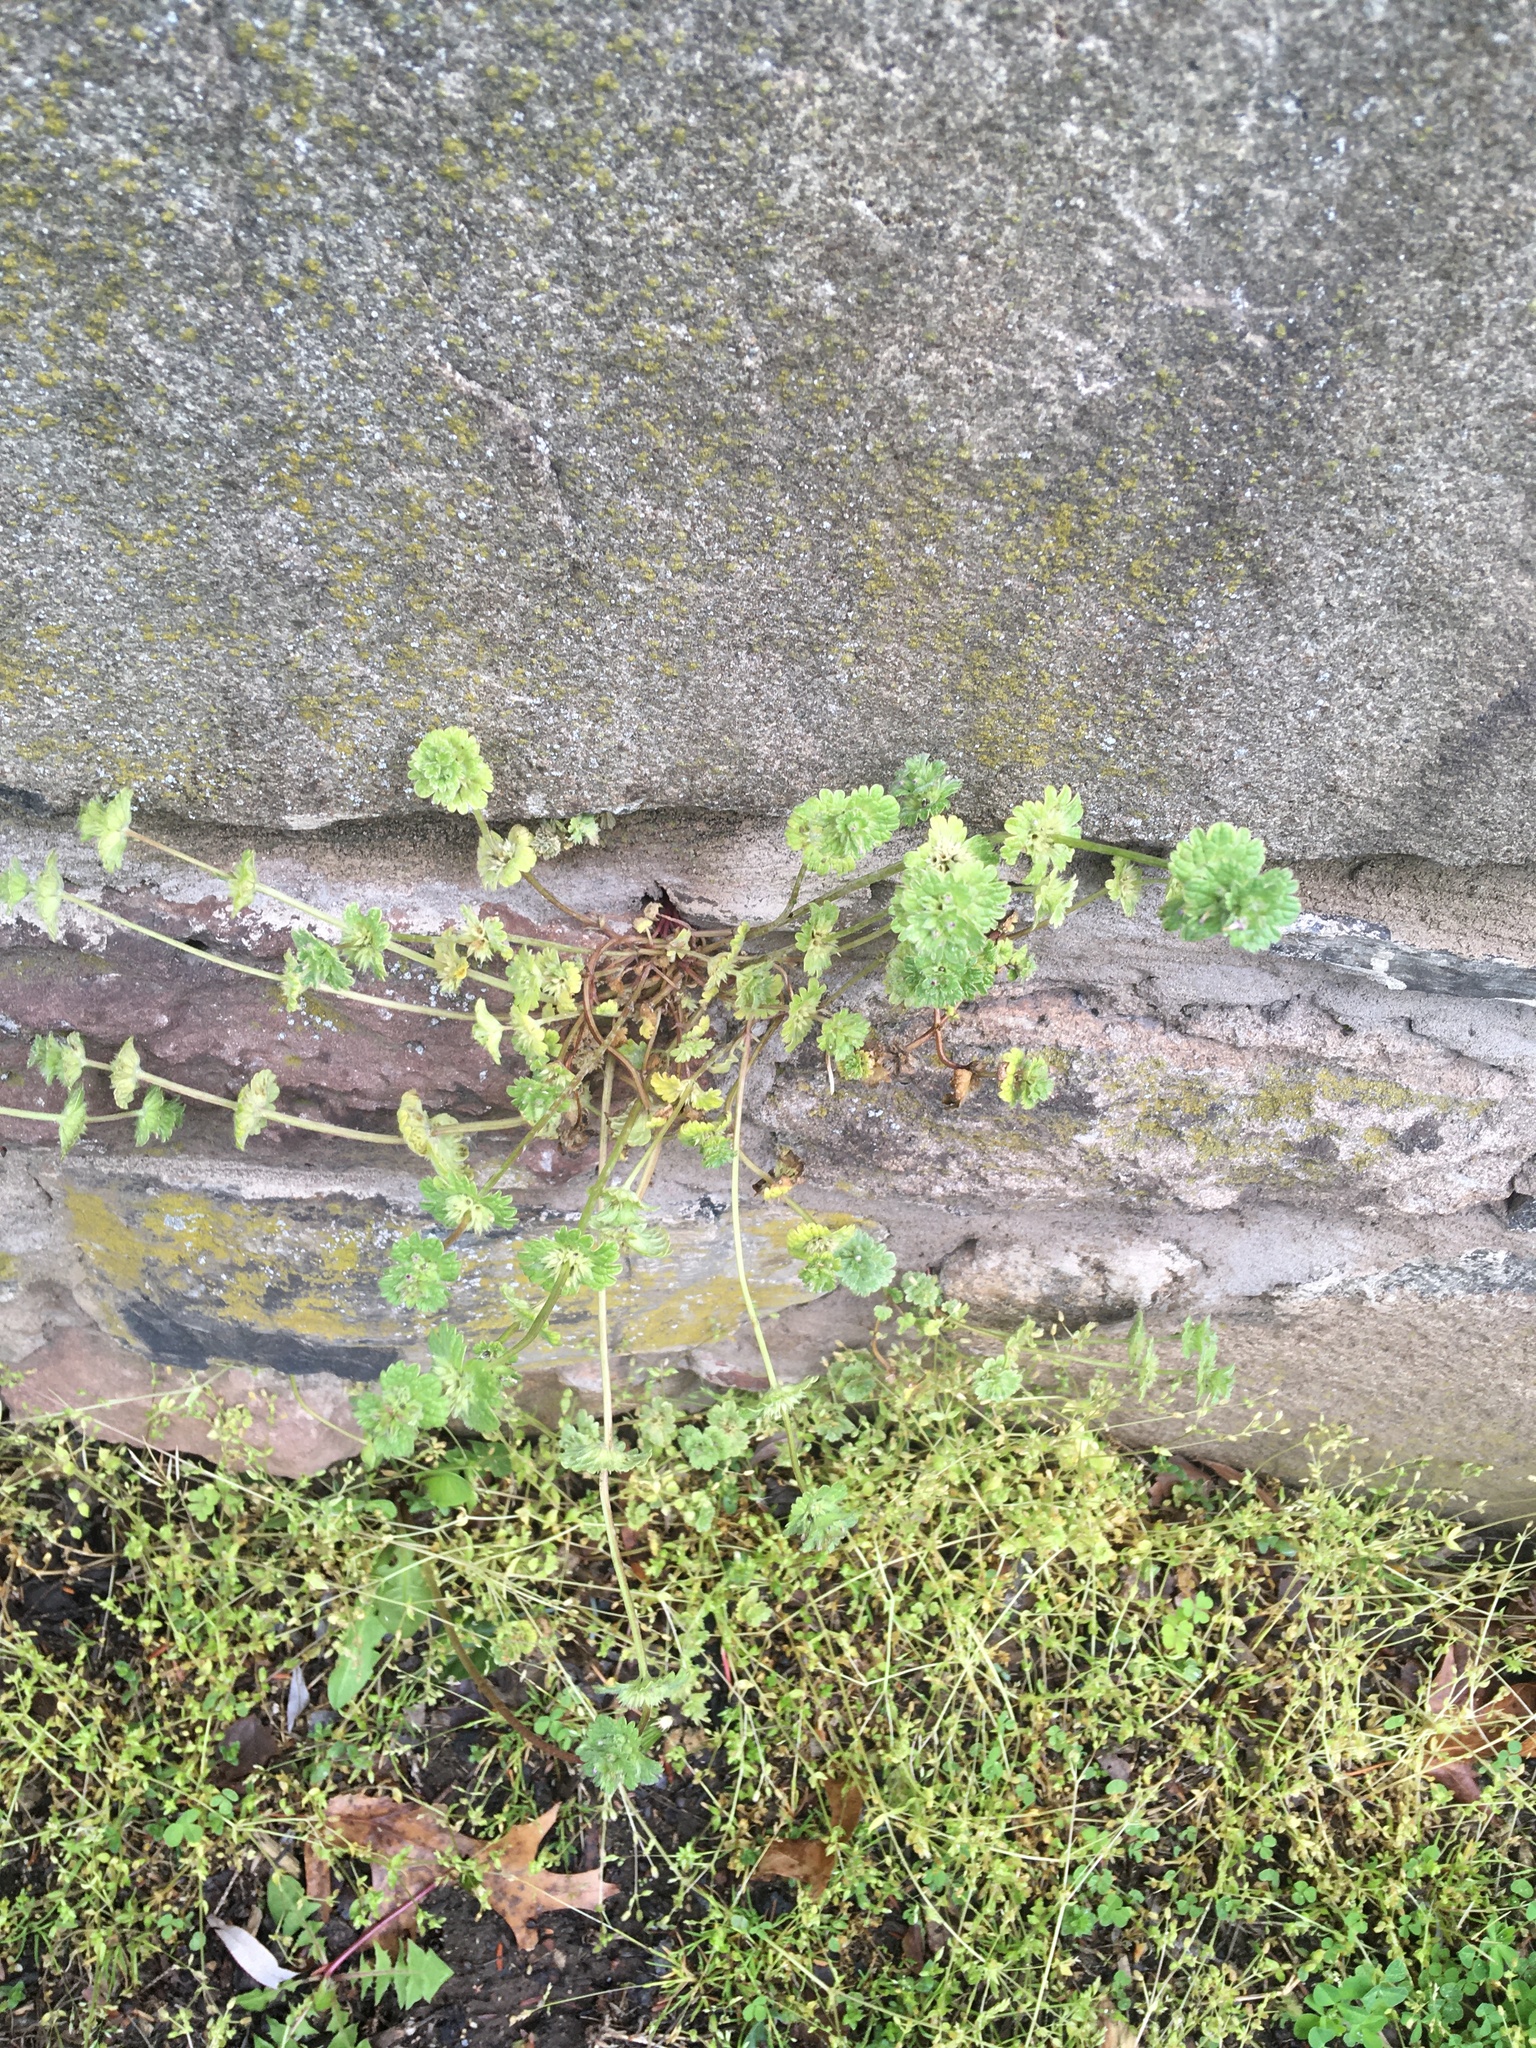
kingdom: Plantae
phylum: Tracheophyta
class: Magnoliopsida
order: Lamiales
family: Lamiaceae
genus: Lamium
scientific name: Lamium amplexicaule
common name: Henbit dead-nettle
